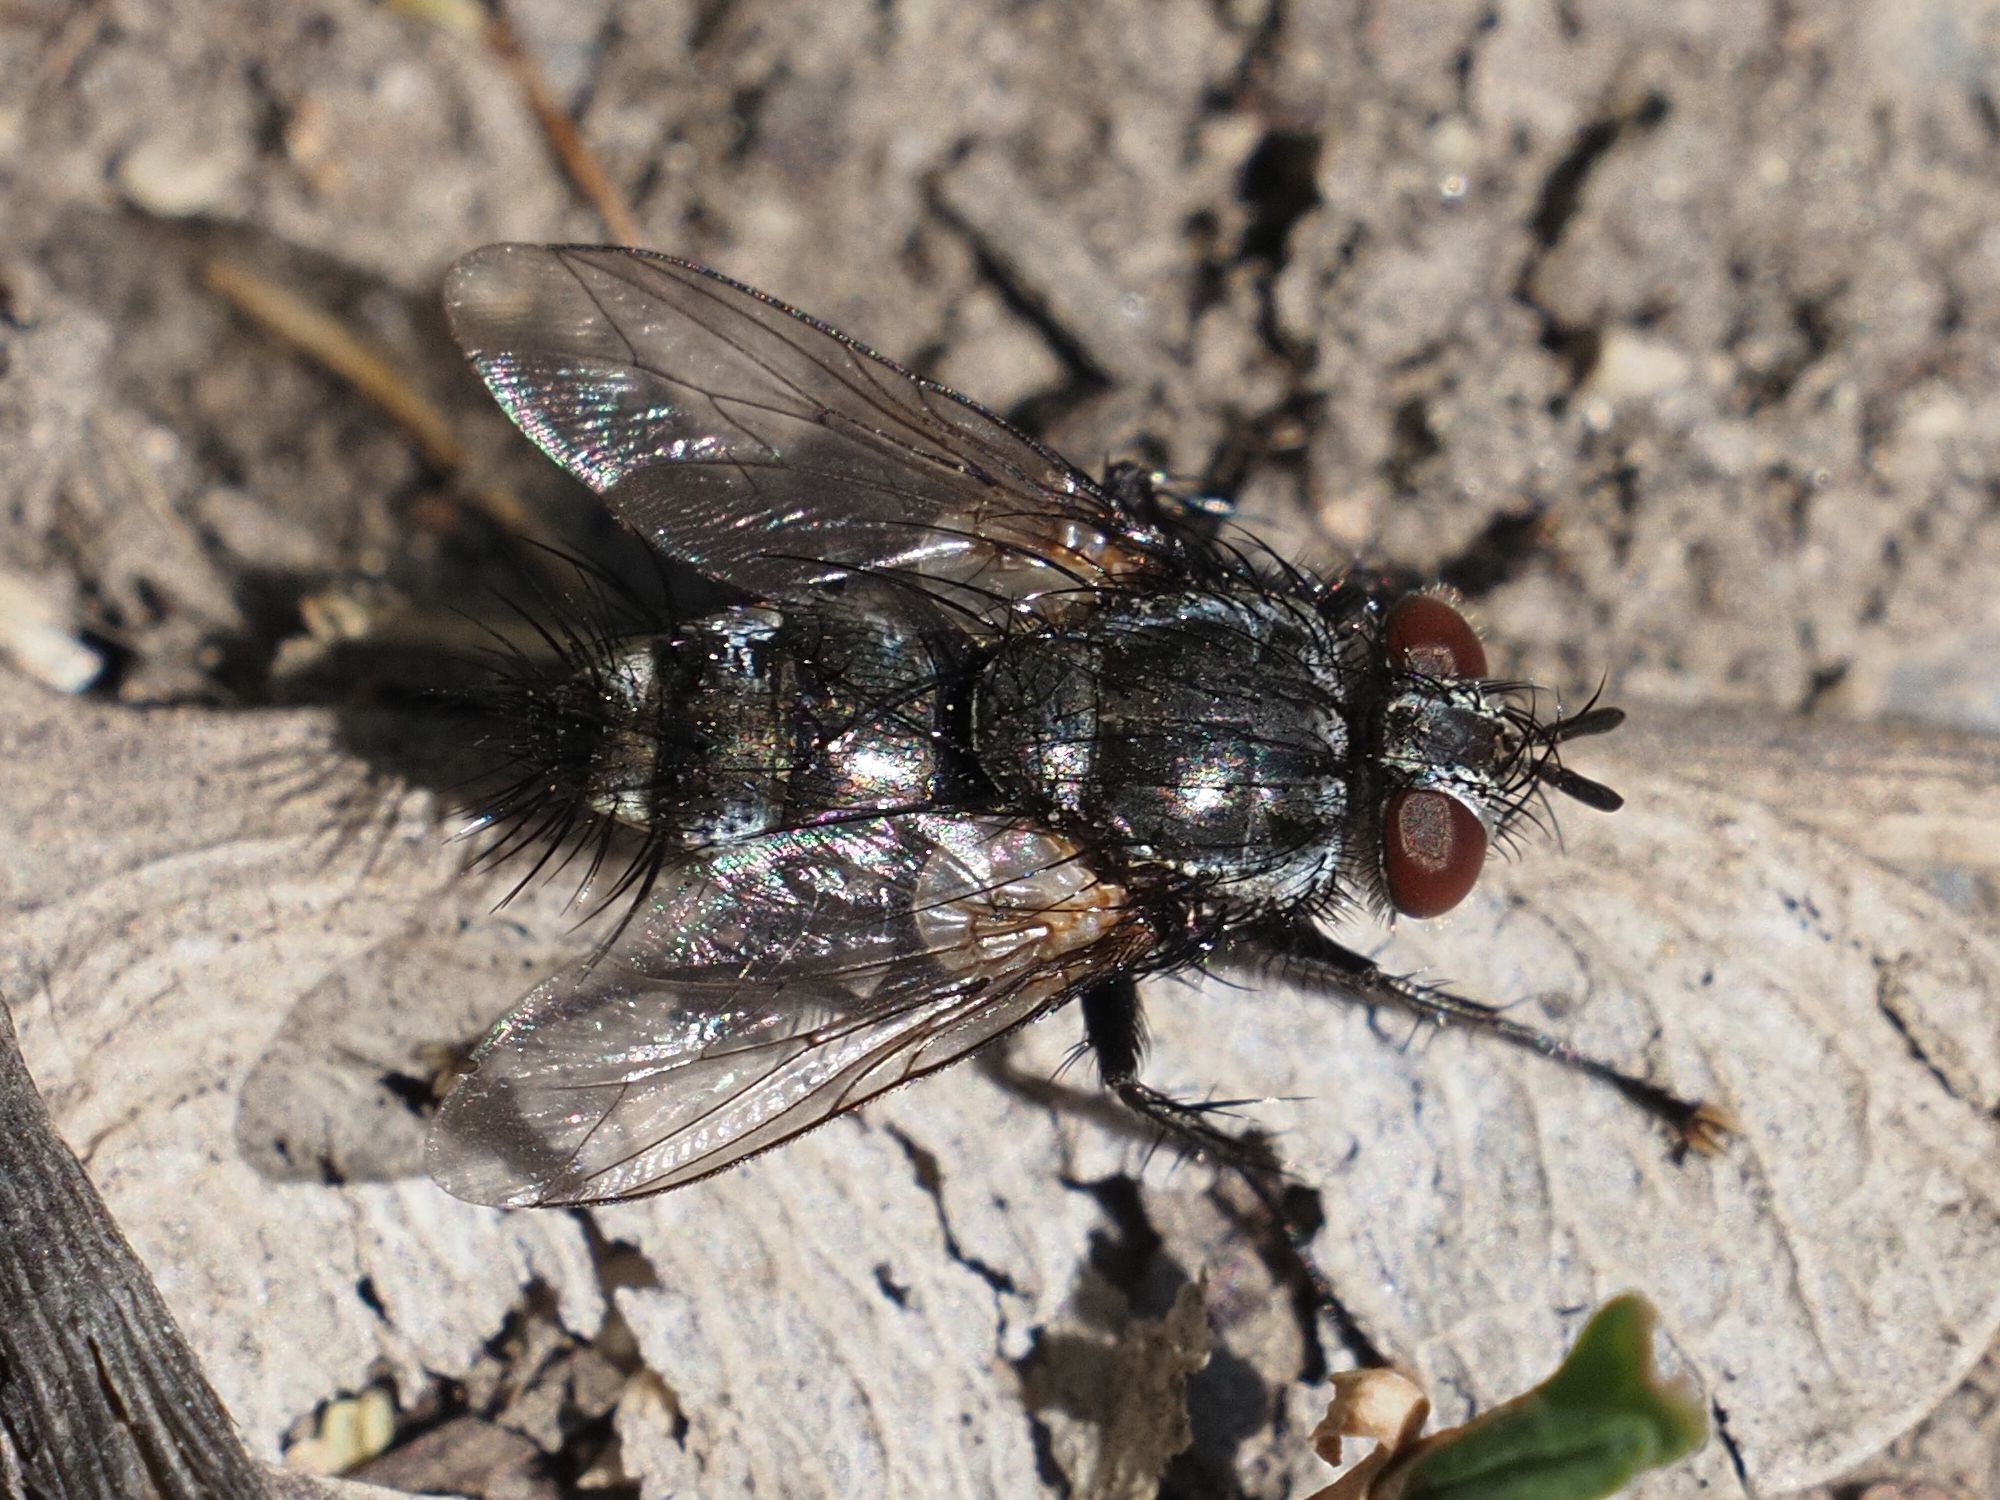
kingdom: Animalia
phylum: Arthropoda
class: Insecta
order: Diptera
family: Tachinidae
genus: Voria
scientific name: Voria ruralis
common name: Parasitic fly
